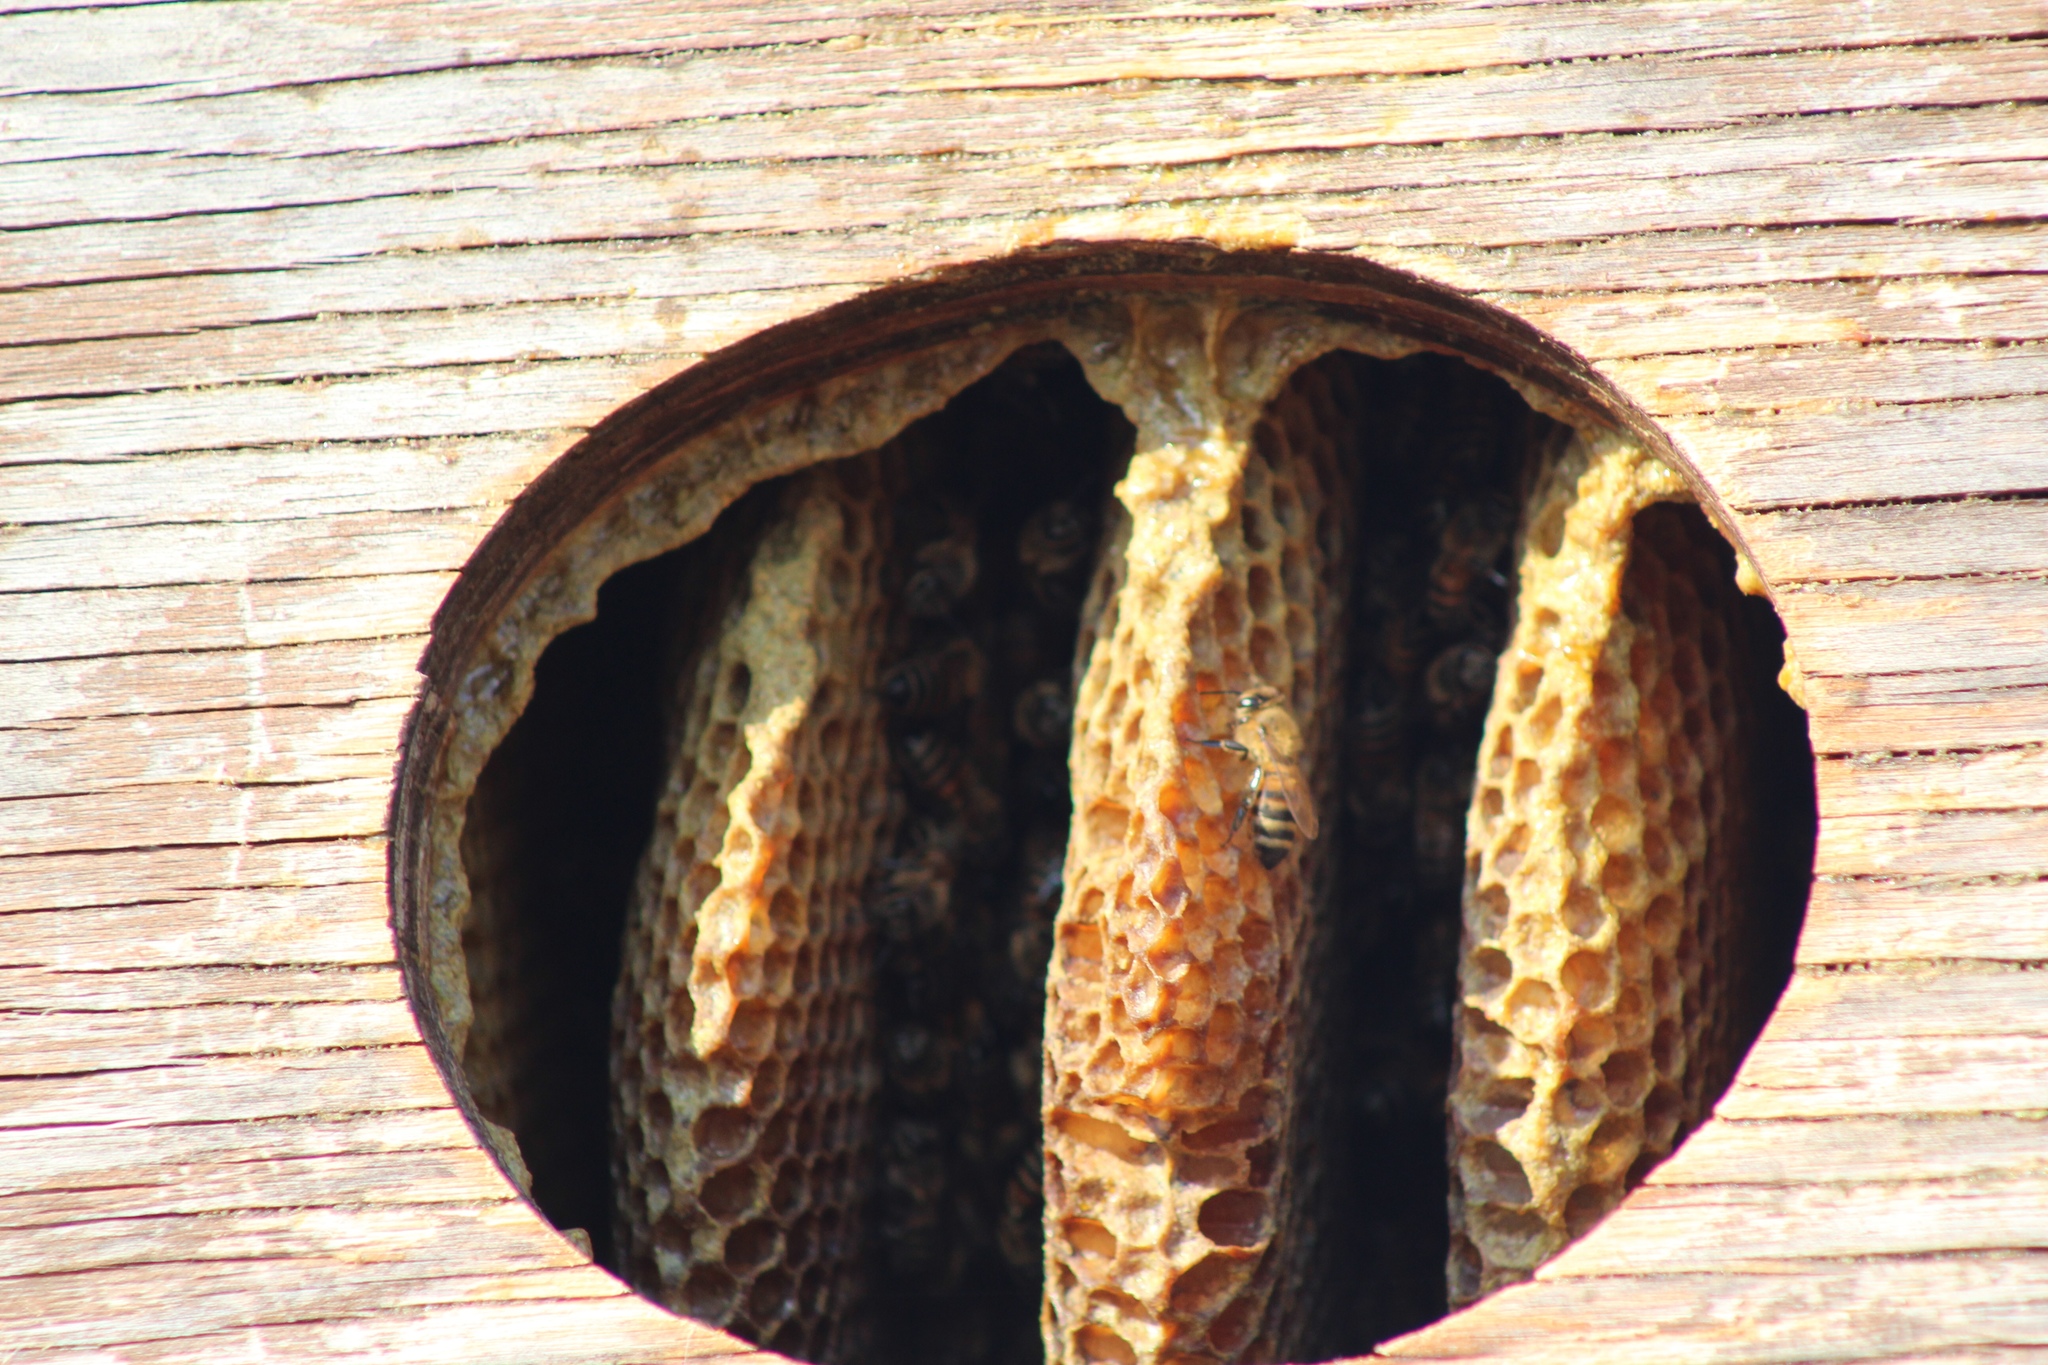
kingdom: Animalia
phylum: Arthropoda
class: Insecta
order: Hymenoptera
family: Apidae
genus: Apis
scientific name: Apis mellifera
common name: Honey bee
